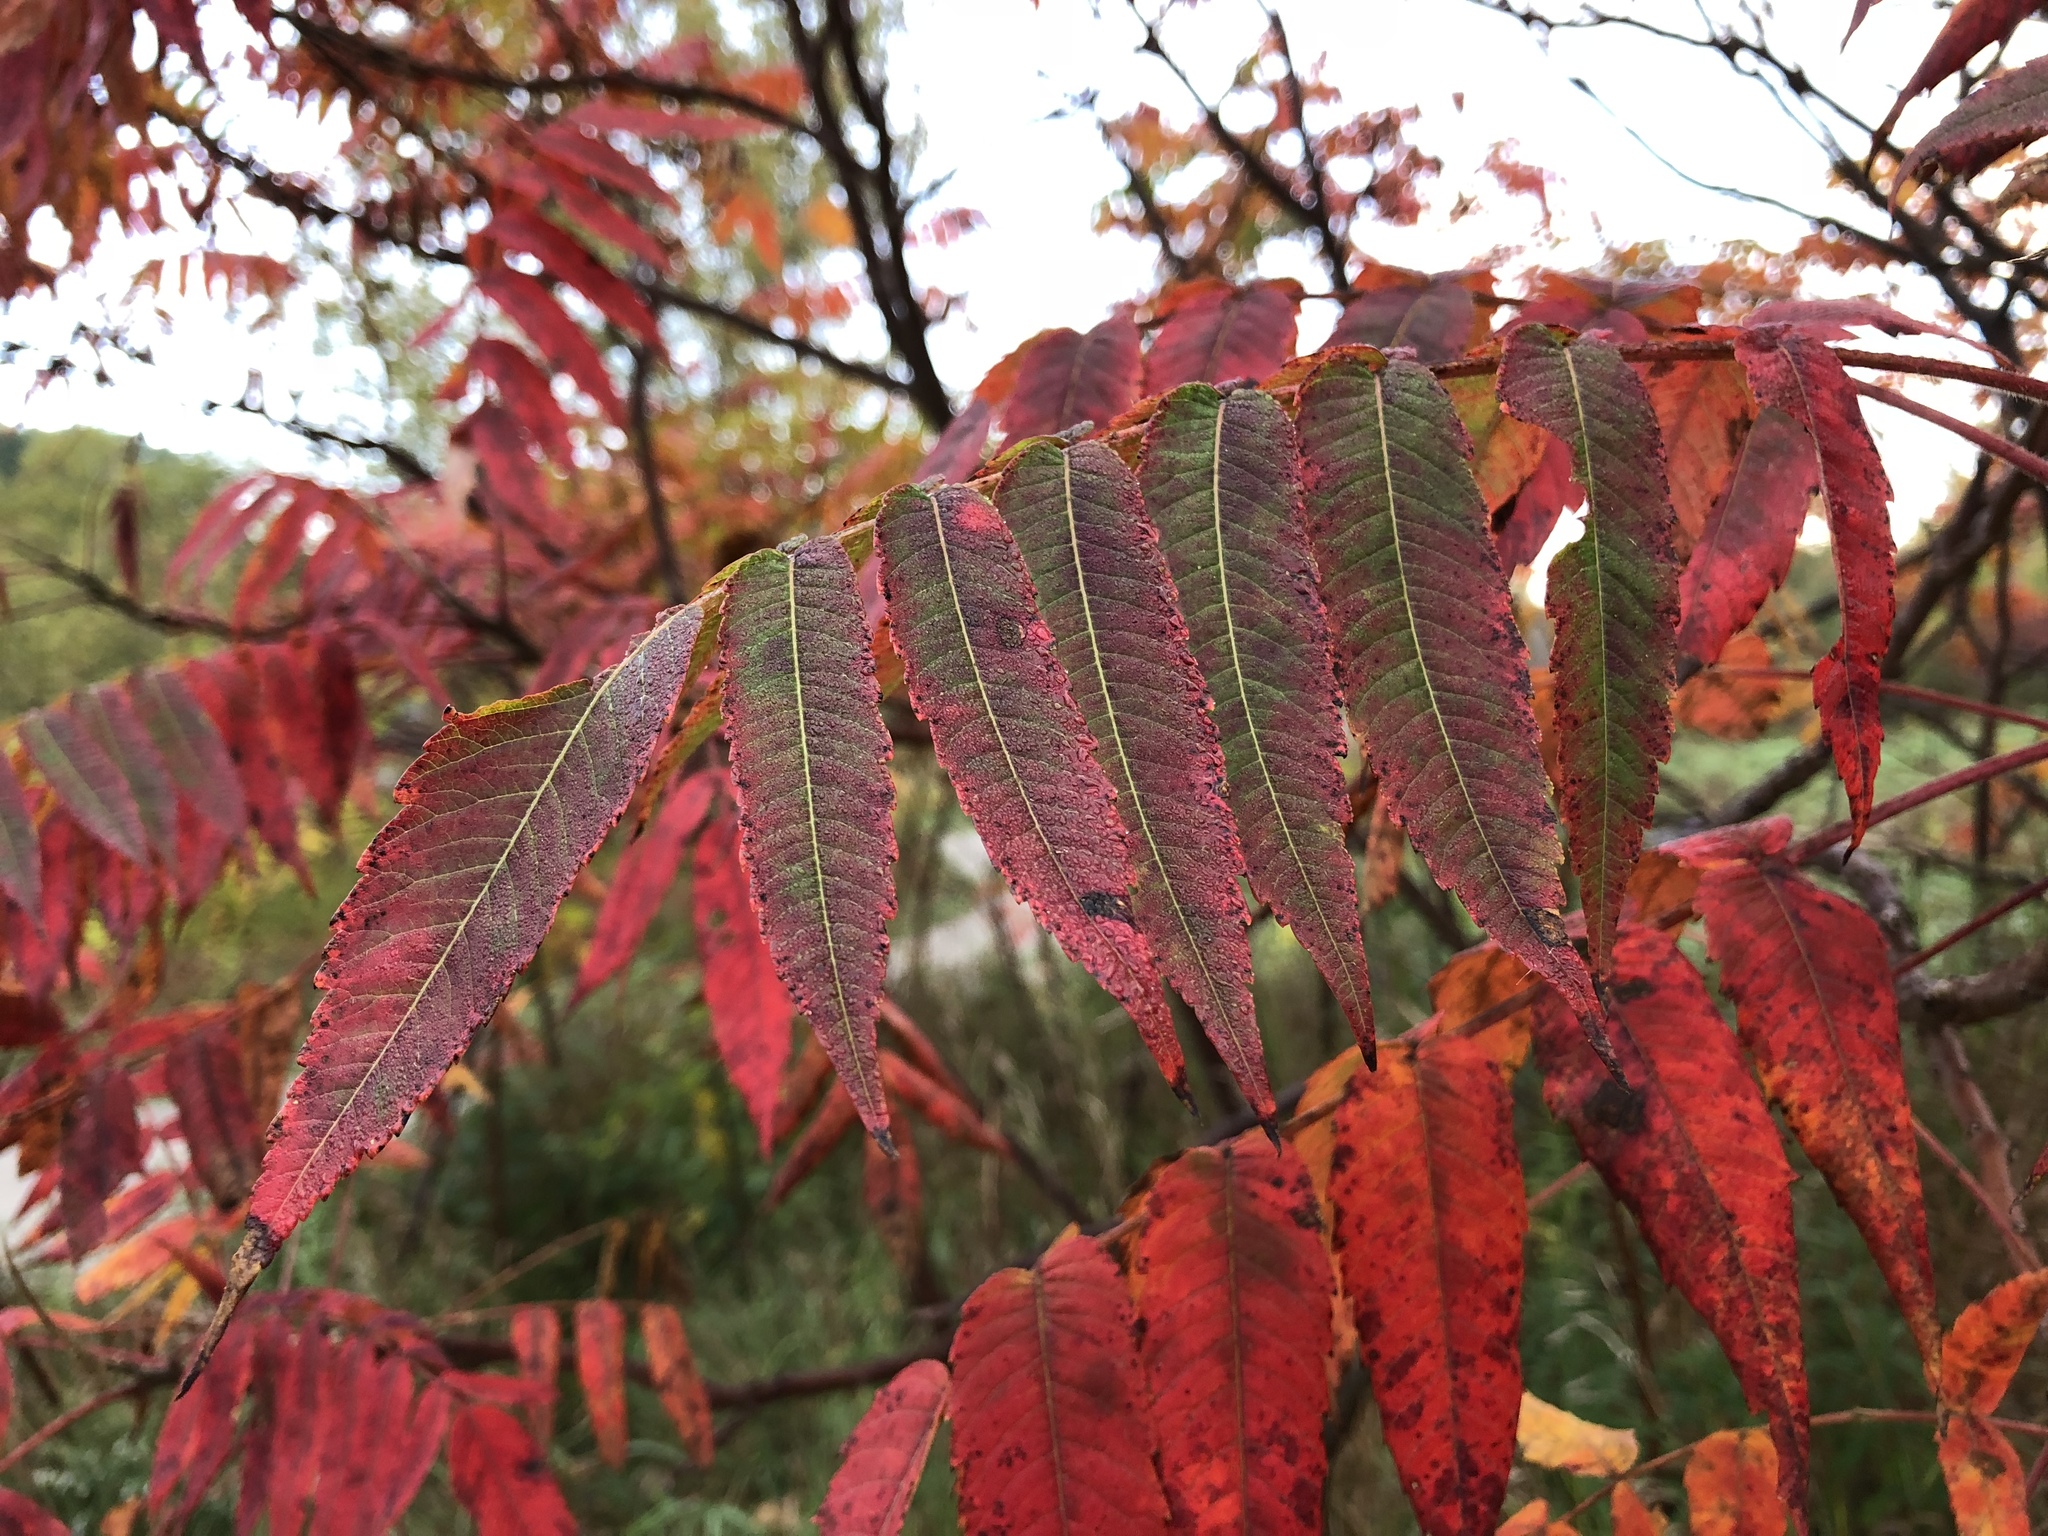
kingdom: Plantae
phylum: Tracheophyta
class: Magnoliopsida
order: Sapindales
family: Anacardiaceae
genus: Rhus
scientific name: Rhus typhina
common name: Staghorn sumac
